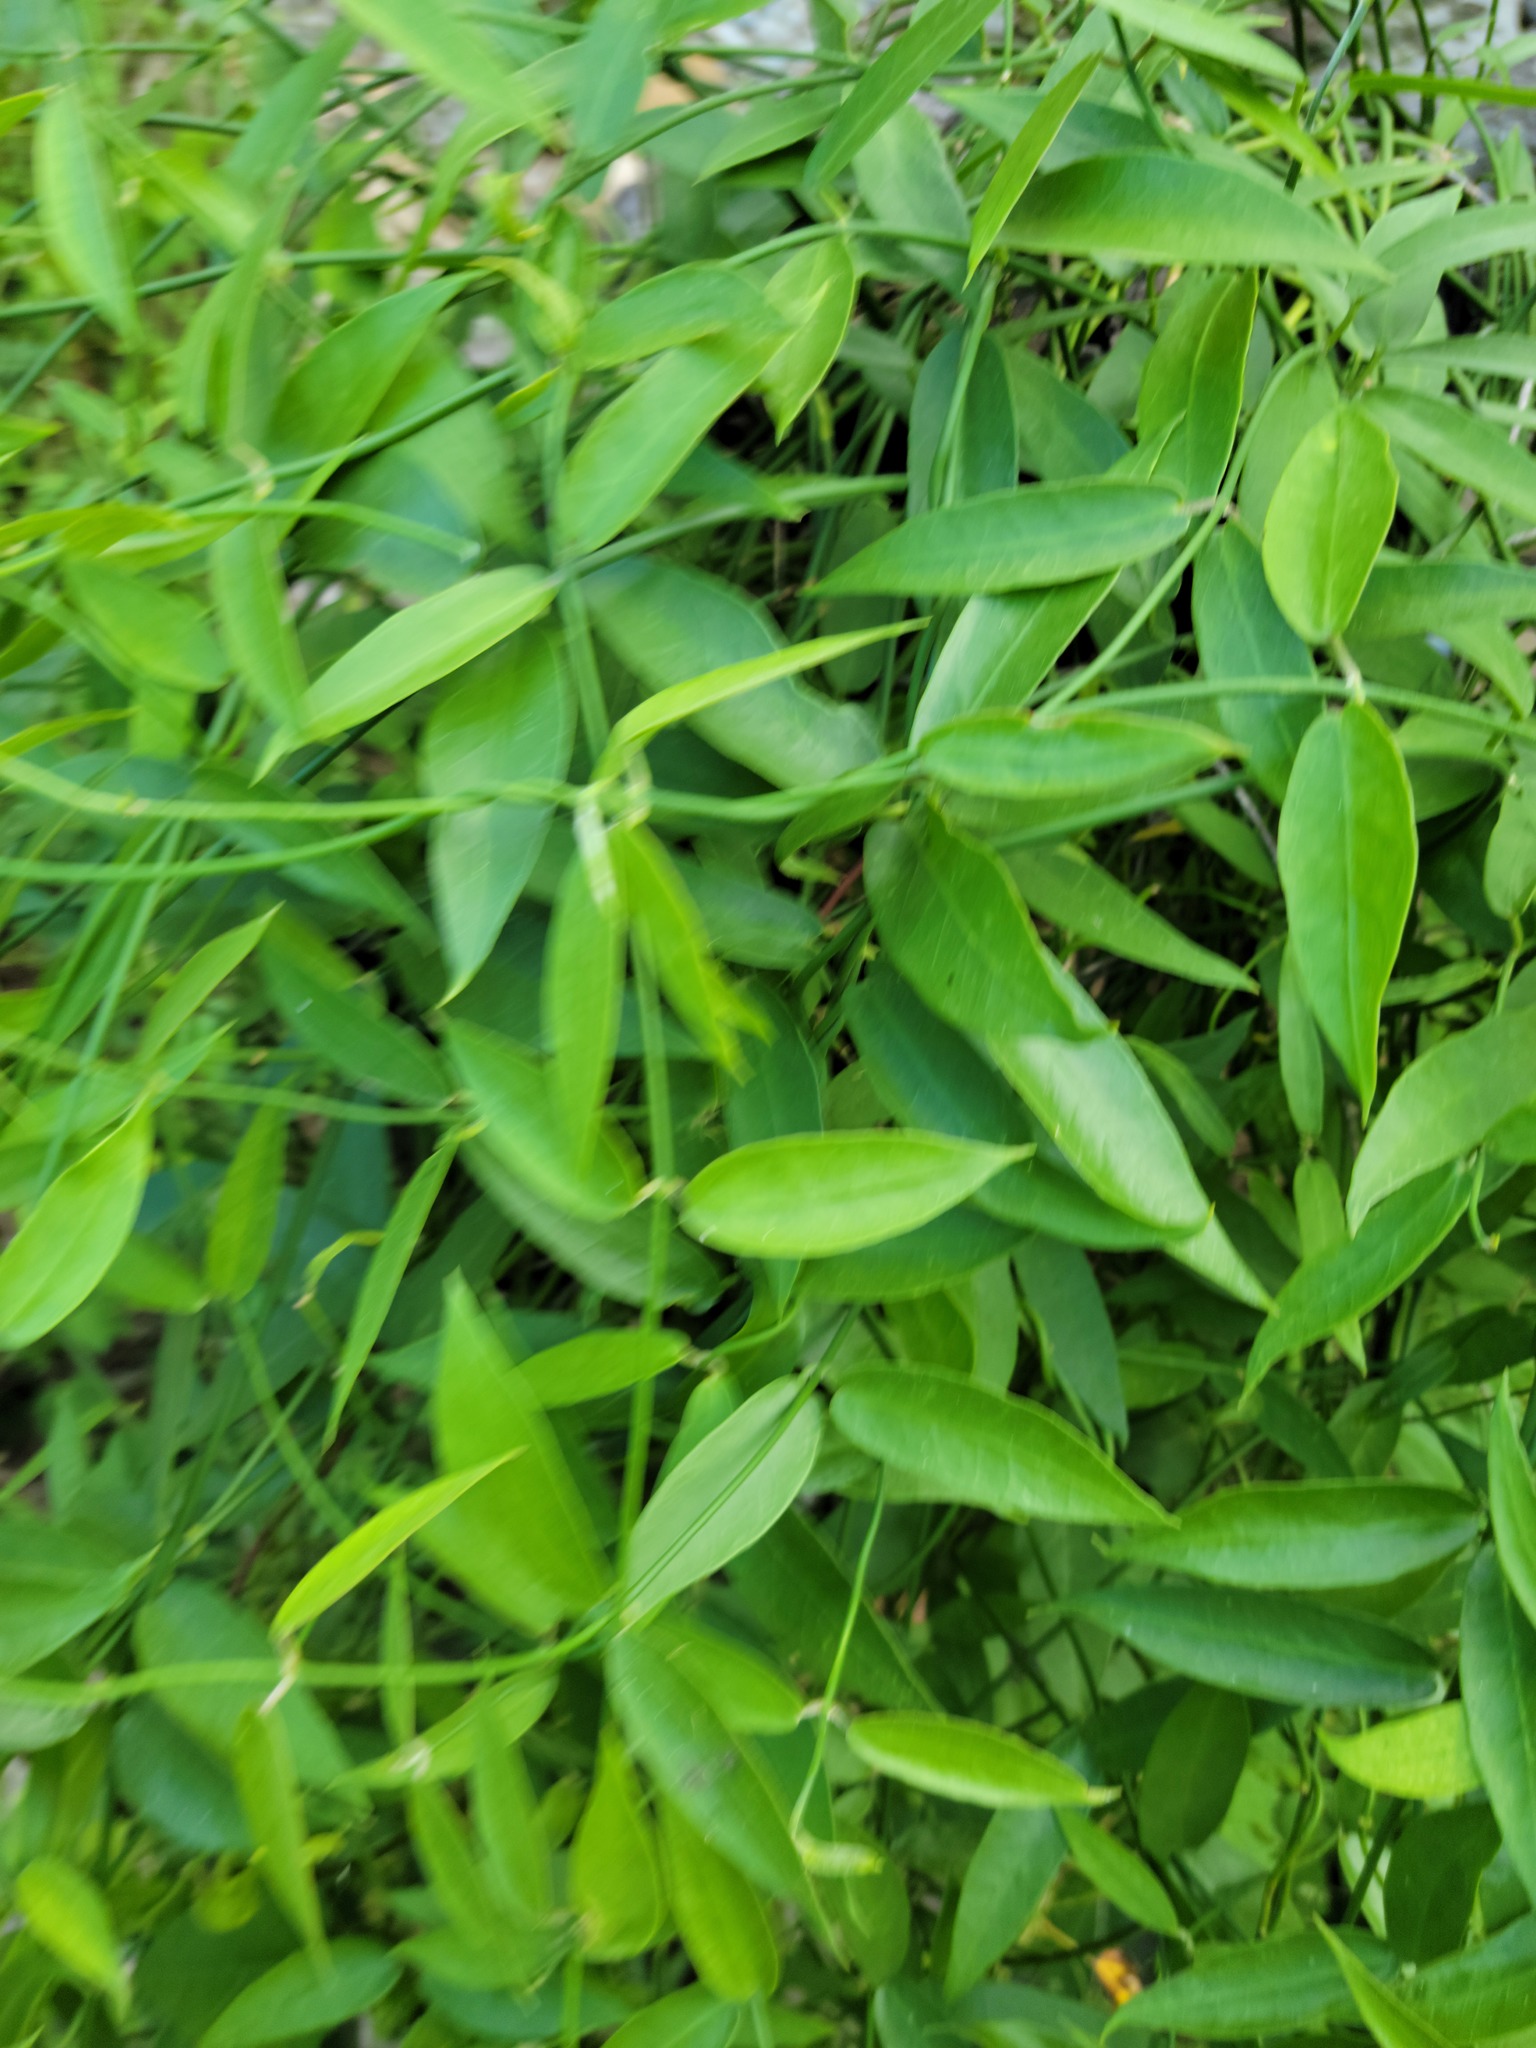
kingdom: Plantae
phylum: Tracheophyta
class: Magnoliopsida
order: Gentianales
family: Apocynaceae
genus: Funastrum
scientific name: Funastrum clausum
